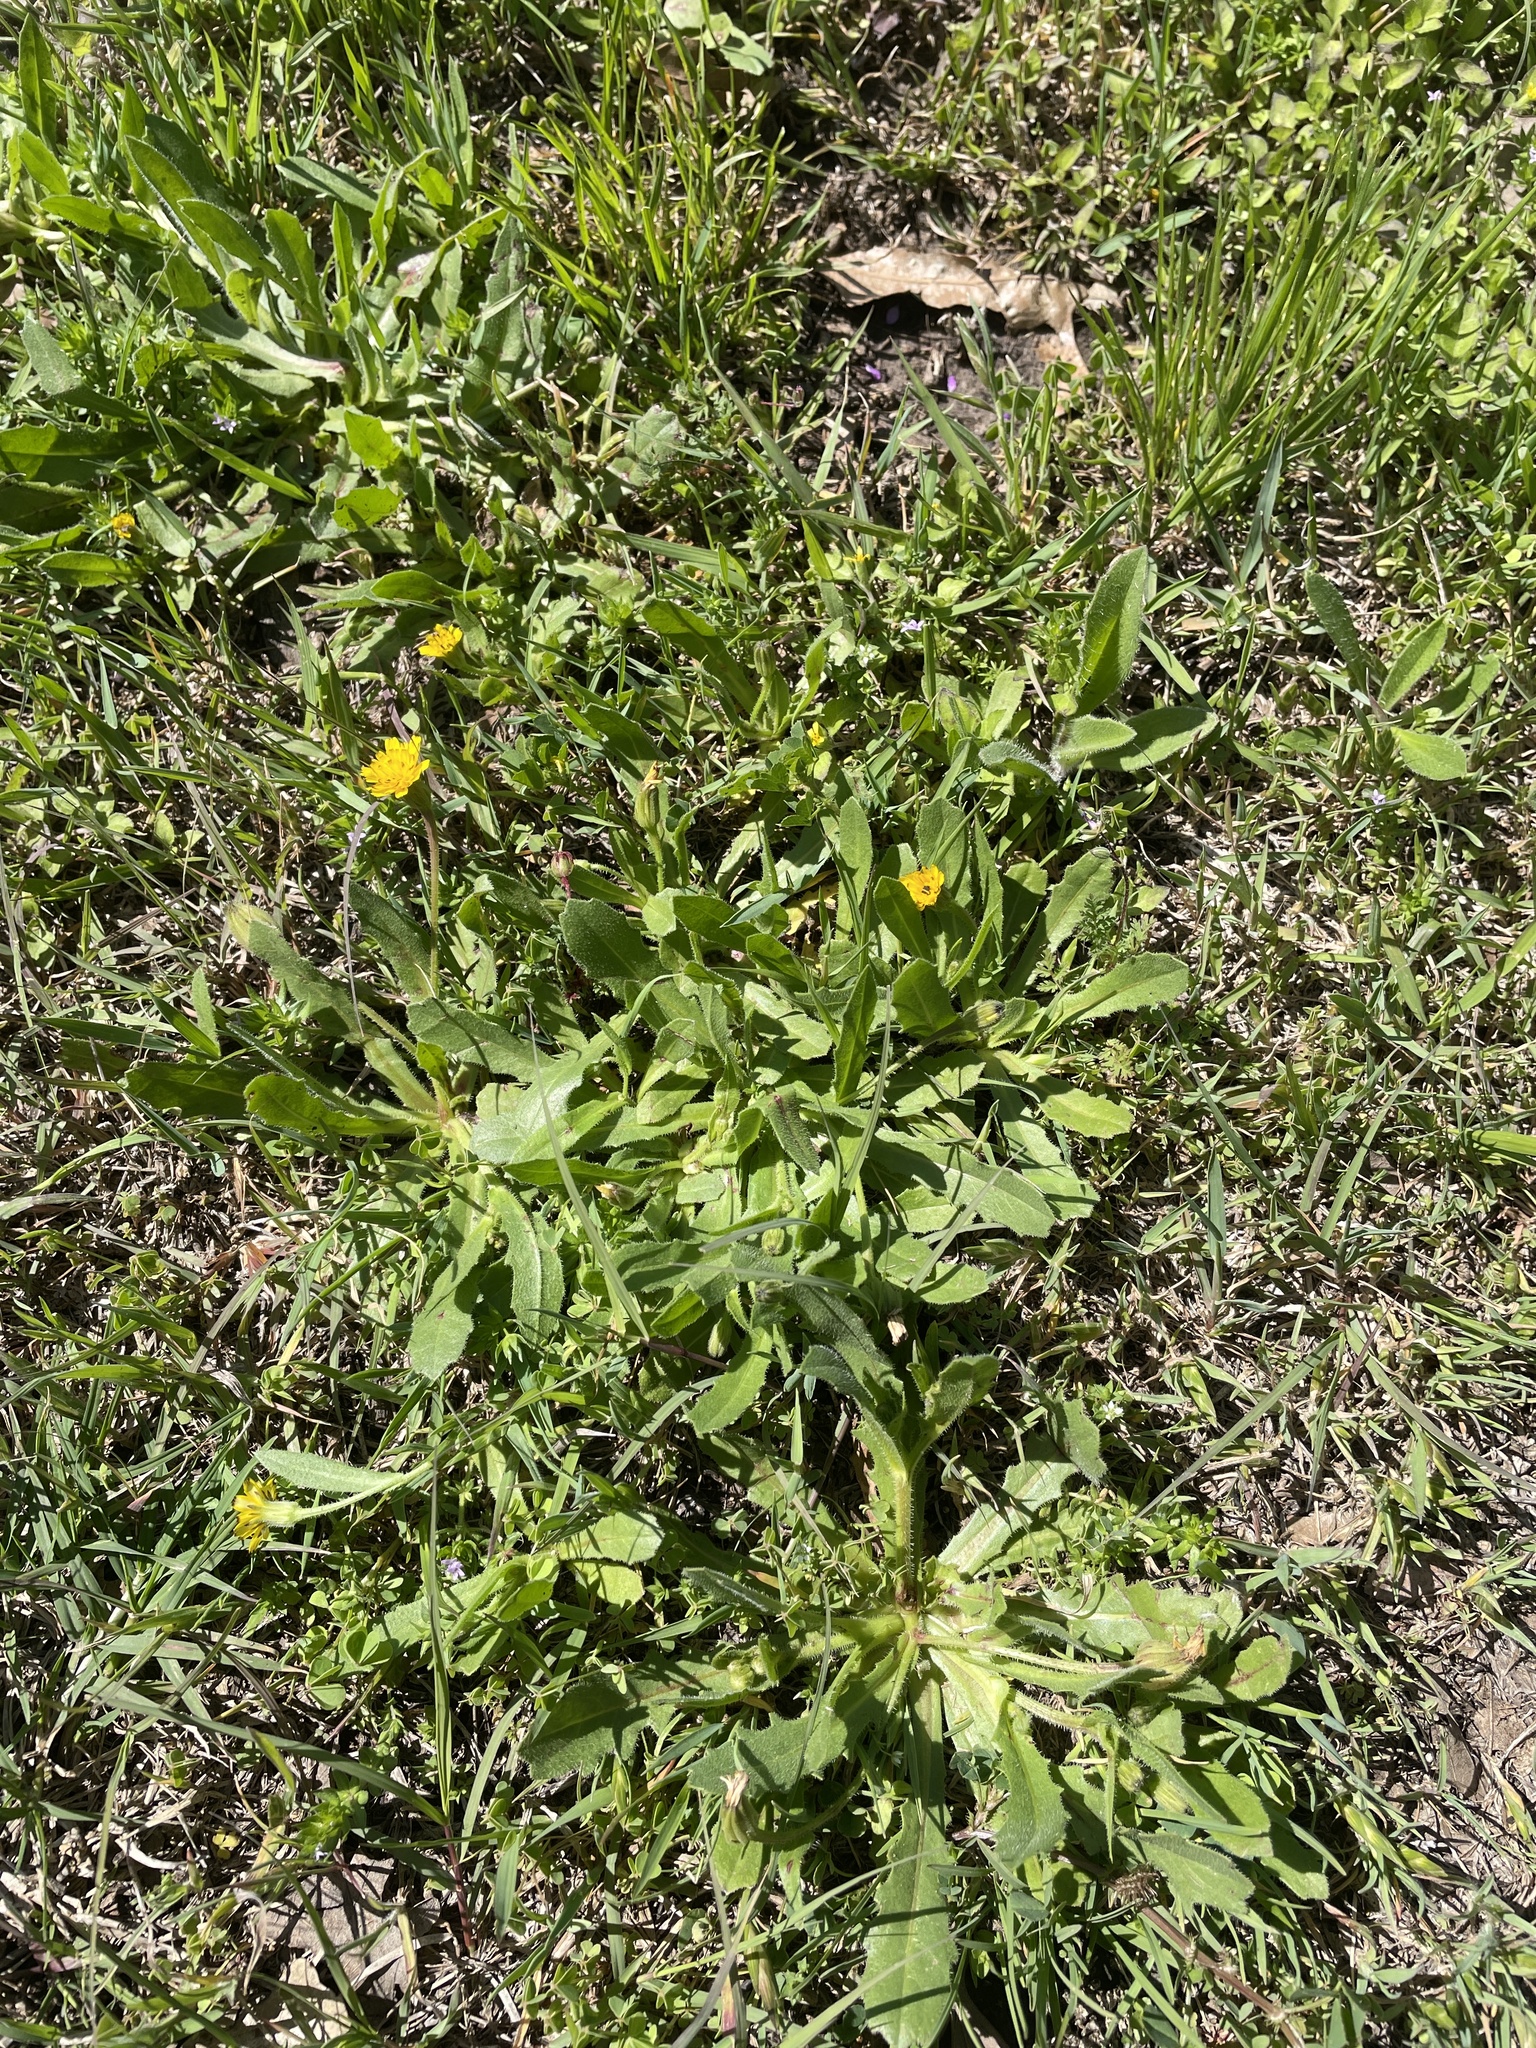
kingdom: Plantae
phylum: Tracheophyta
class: Magnoliopsida
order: Asterales
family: Asteraceae
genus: Hedypnois
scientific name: Hedypnois rhagadioloides
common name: Cretan weed
